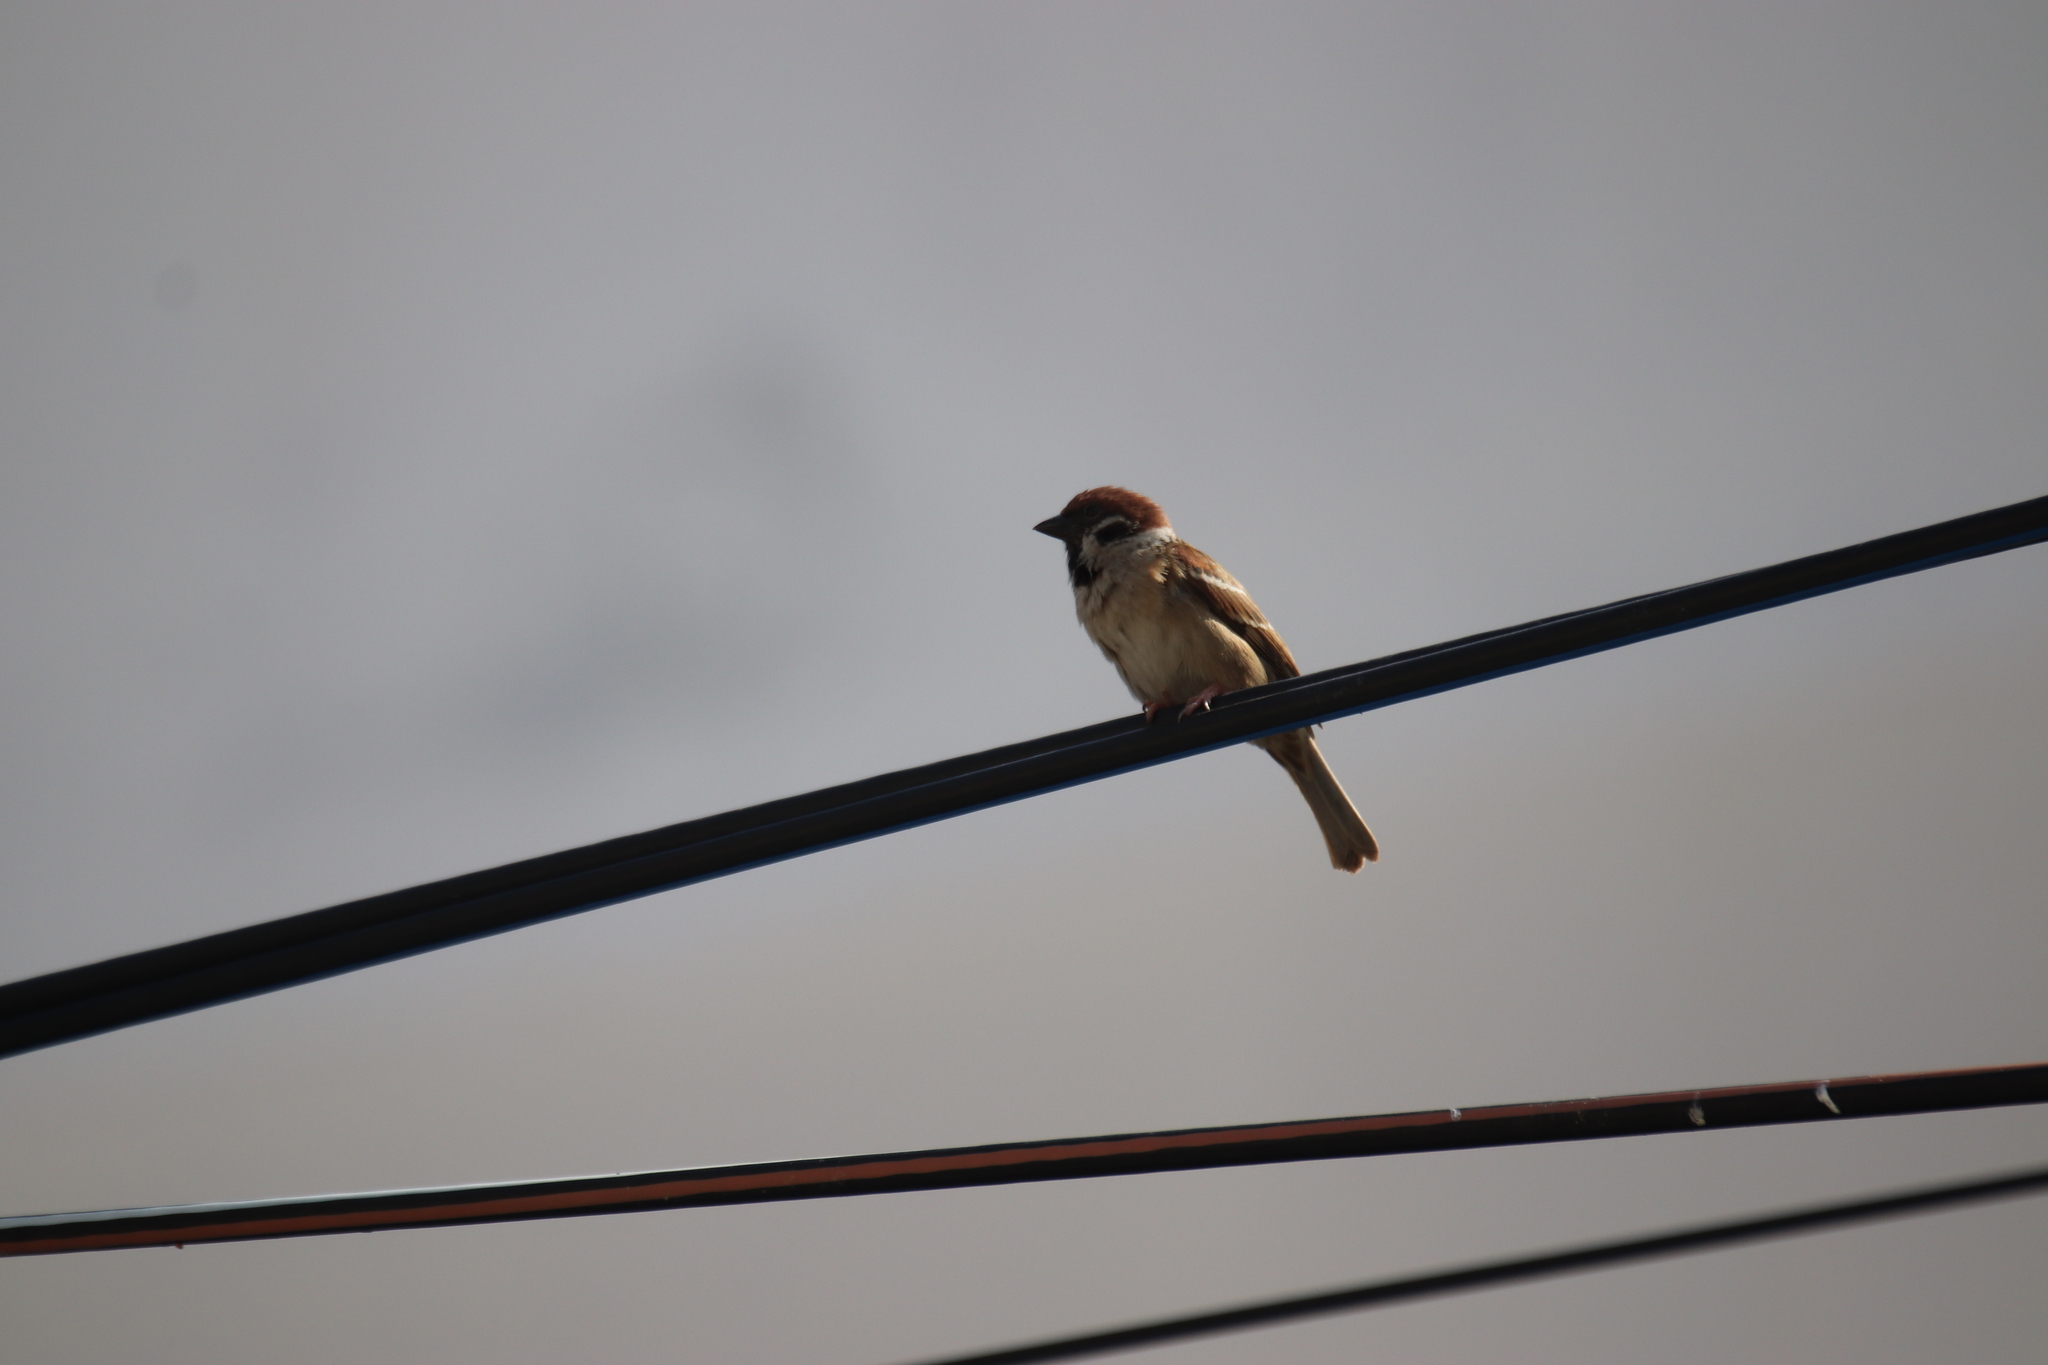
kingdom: Animalia
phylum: Chordata
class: Aves
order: Passeriformes
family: Passeridae
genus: Passer
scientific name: Passer montanus
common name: Eurasian tree sparrow
